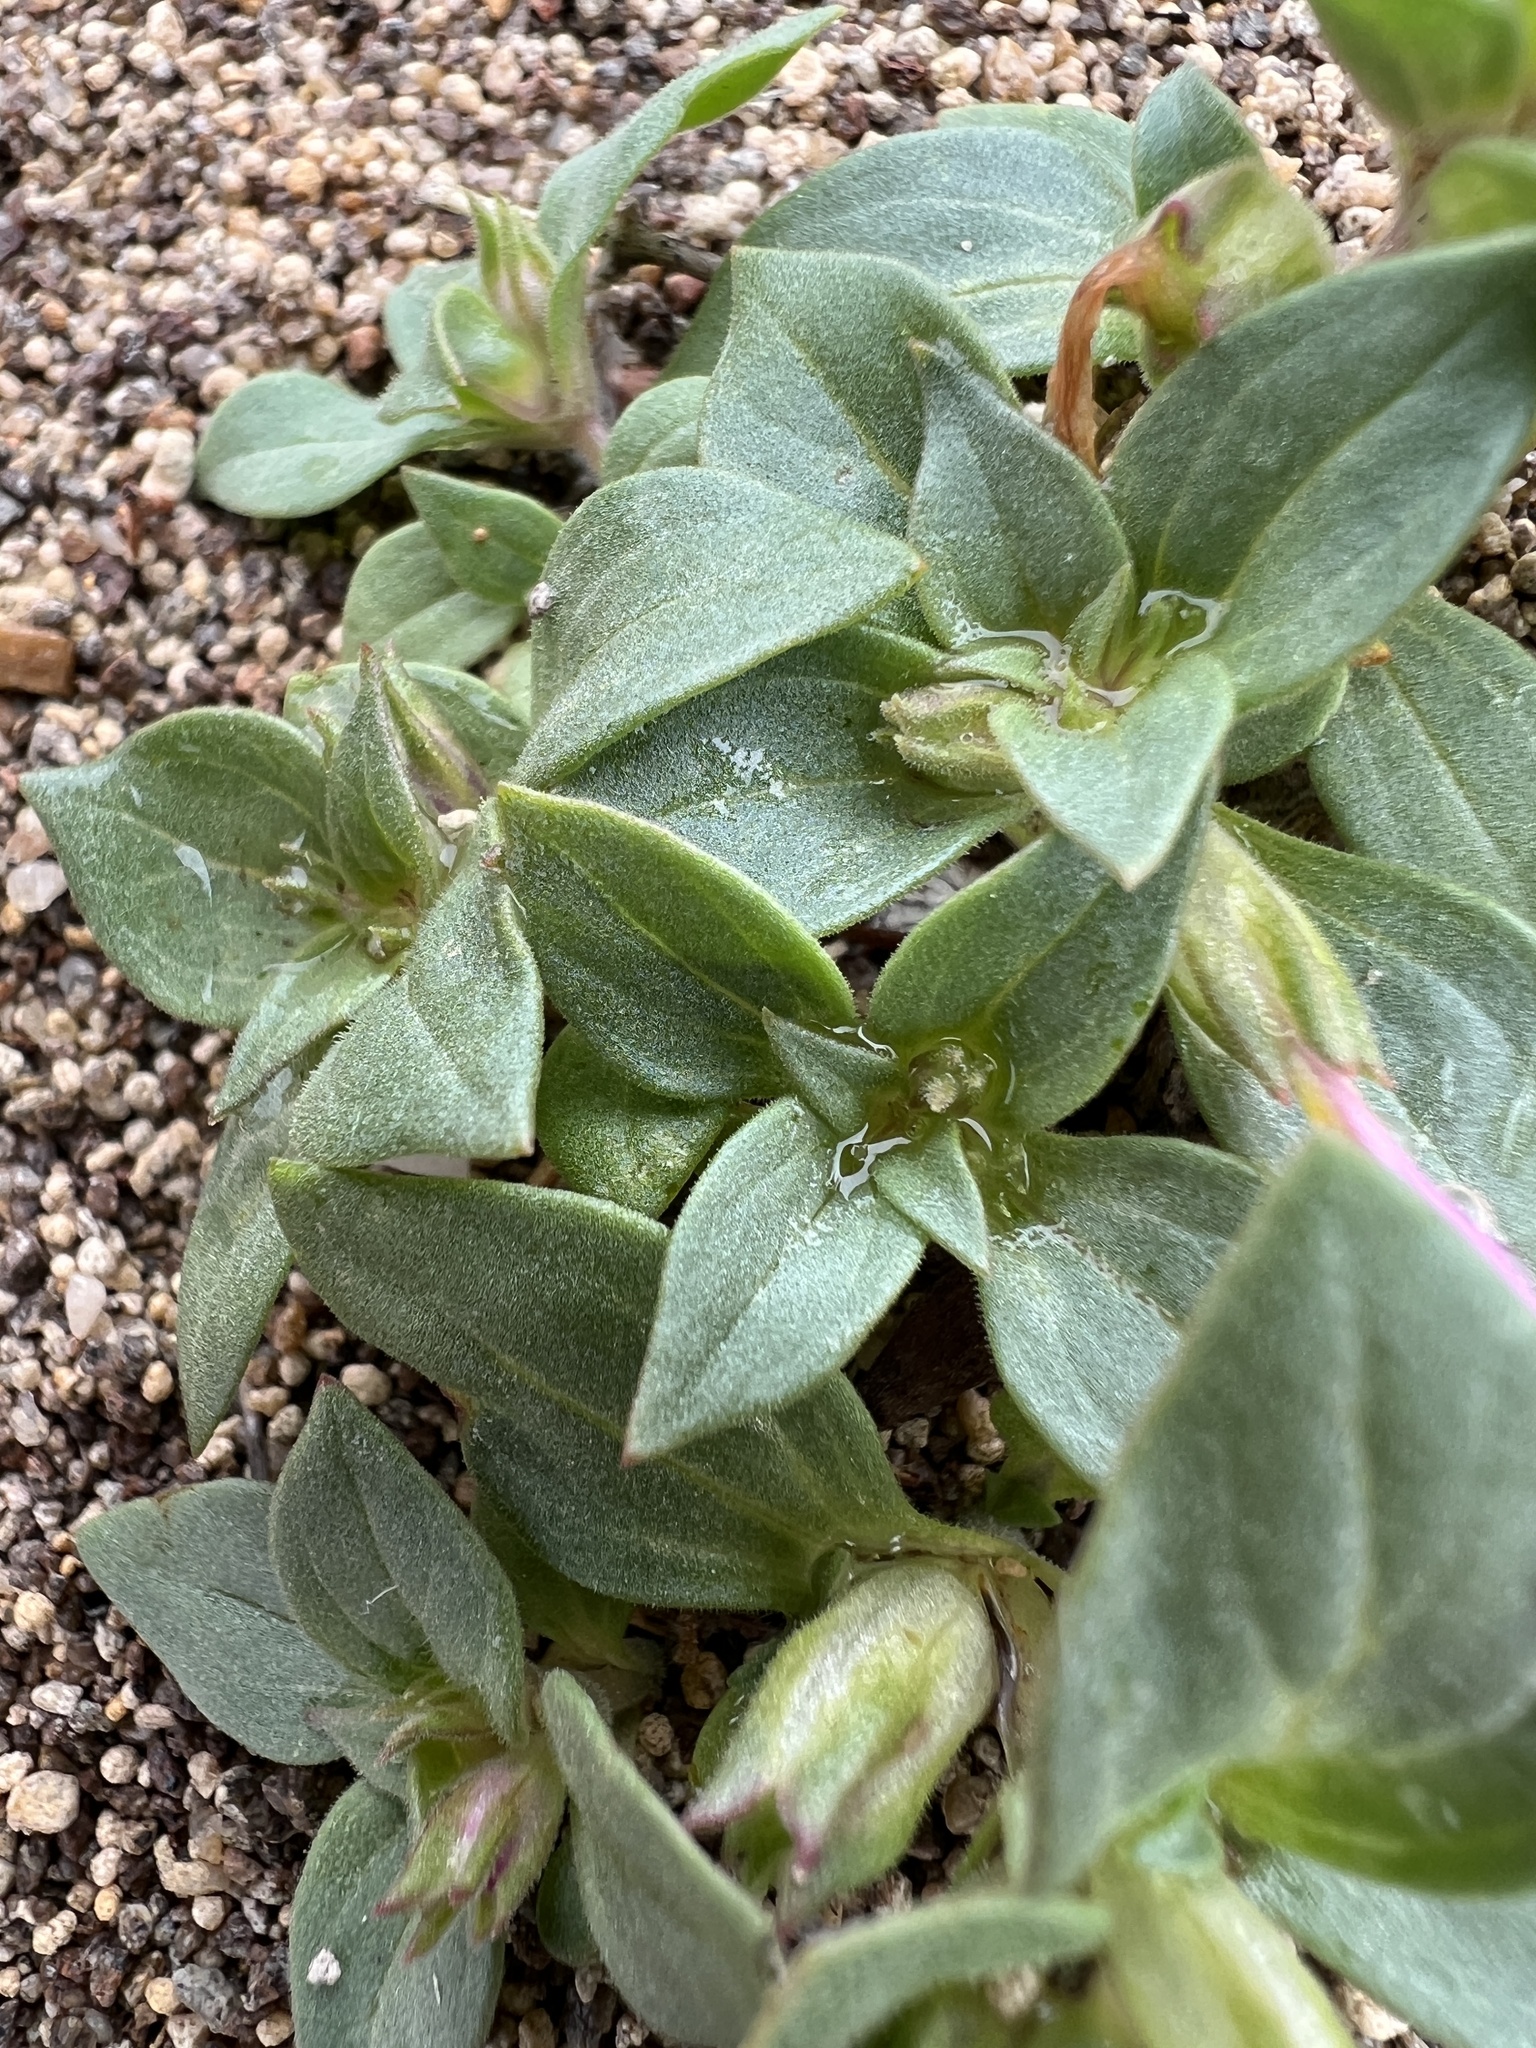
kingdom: Plantae
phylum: Tracheophyta
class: Magnoliopsida
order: Lamiales
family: Phrymaceae
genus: Diplacus
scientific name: Diplacus cusickioides
